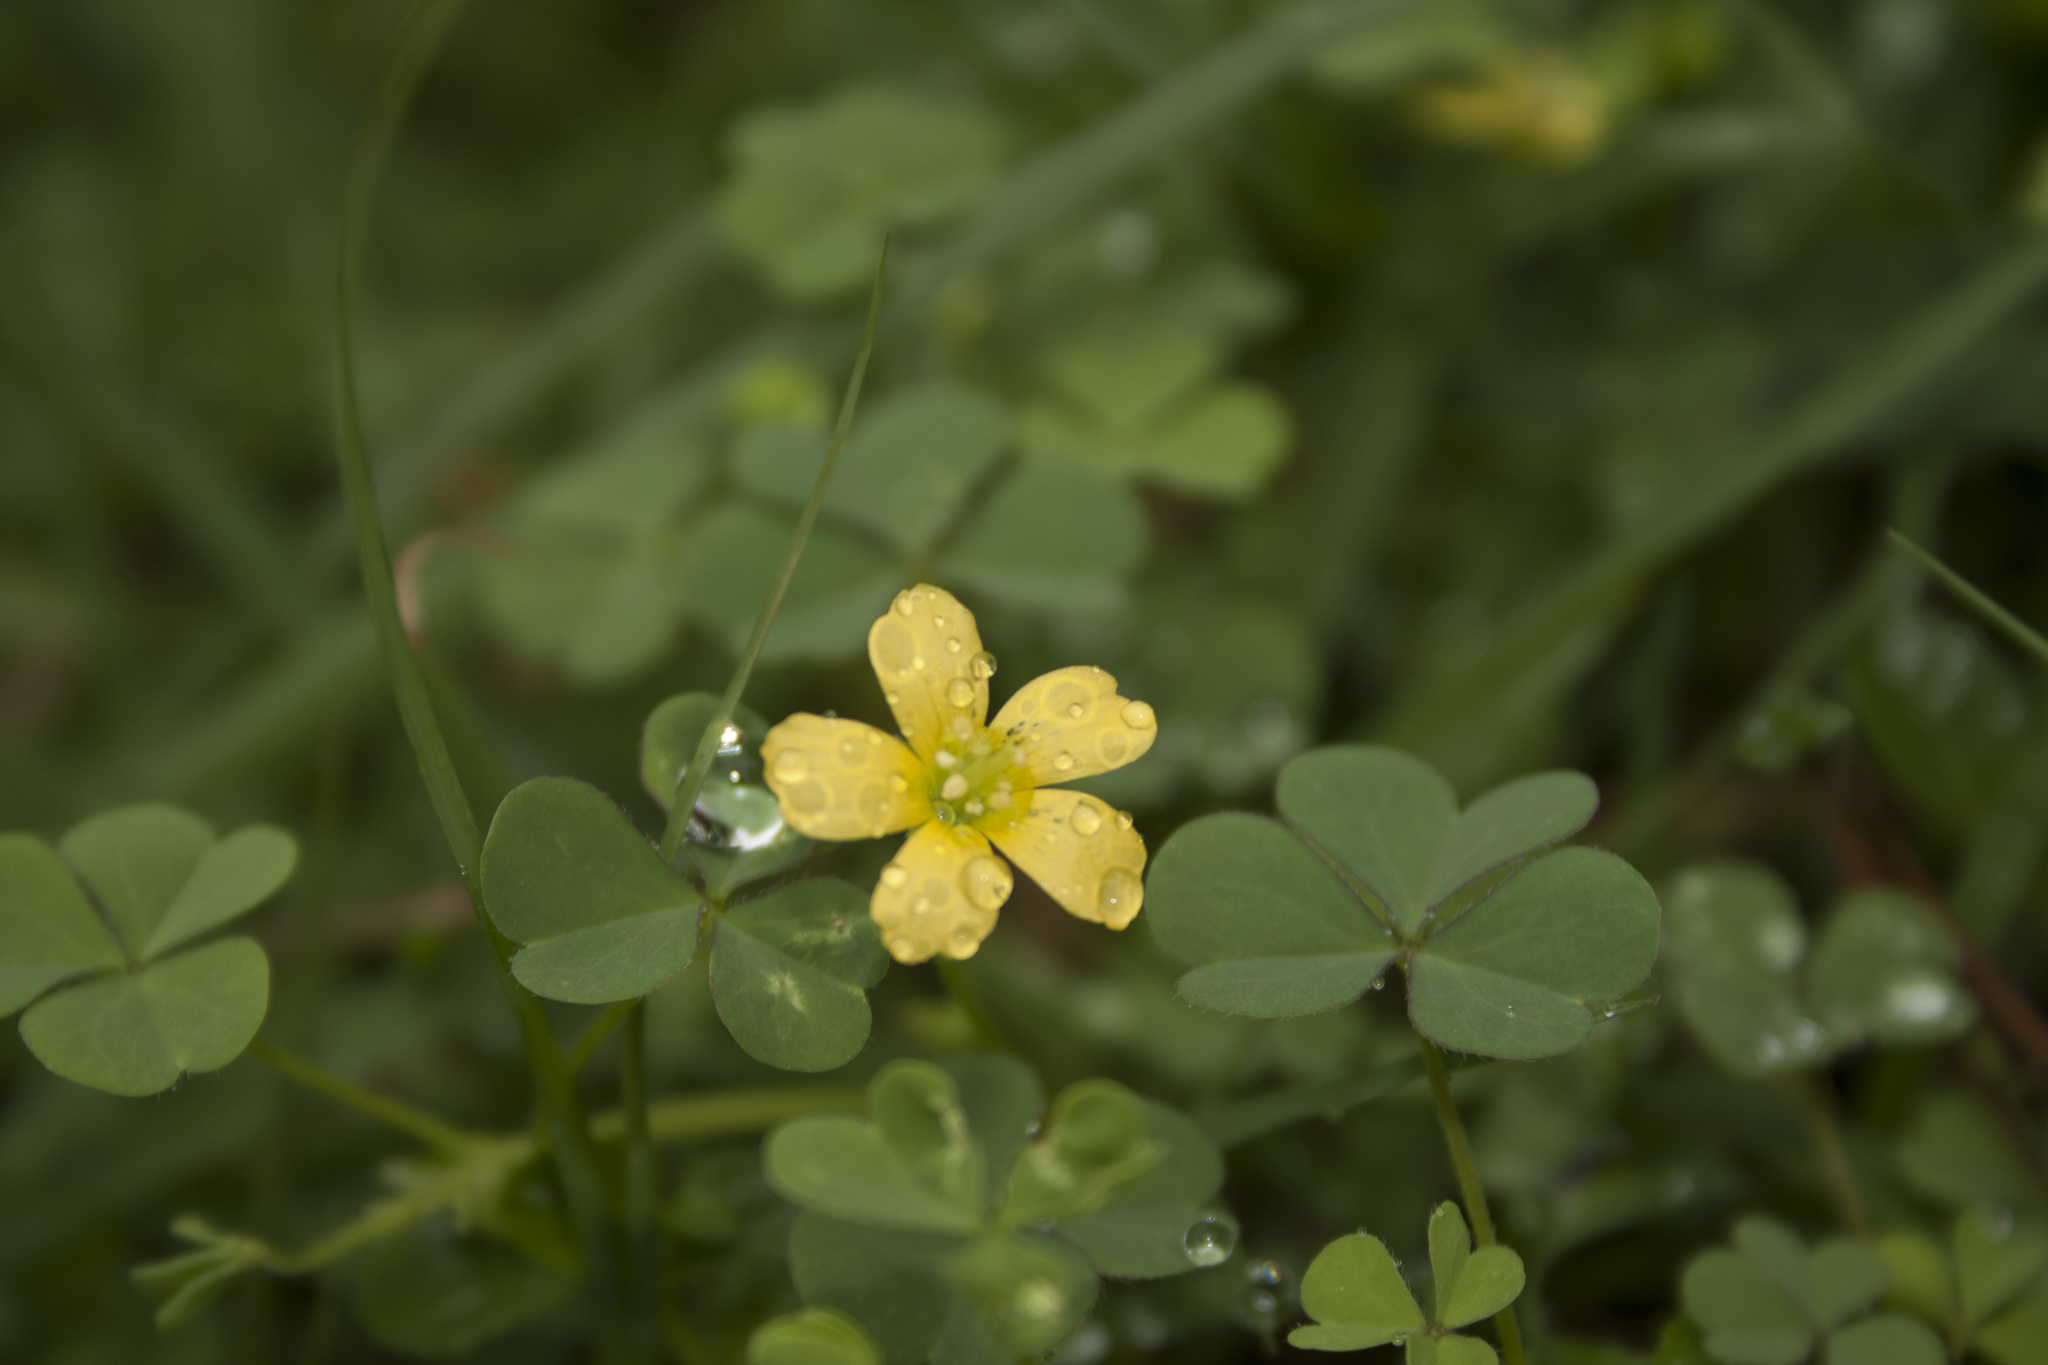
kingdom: Plantae
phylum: Tracheophyta
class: Magnoliopsida
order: Oxalidales
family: Oxalidaceae
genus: Oxalis
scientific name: Oxalis corniculata
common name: Procumbent yellow-sorrel
